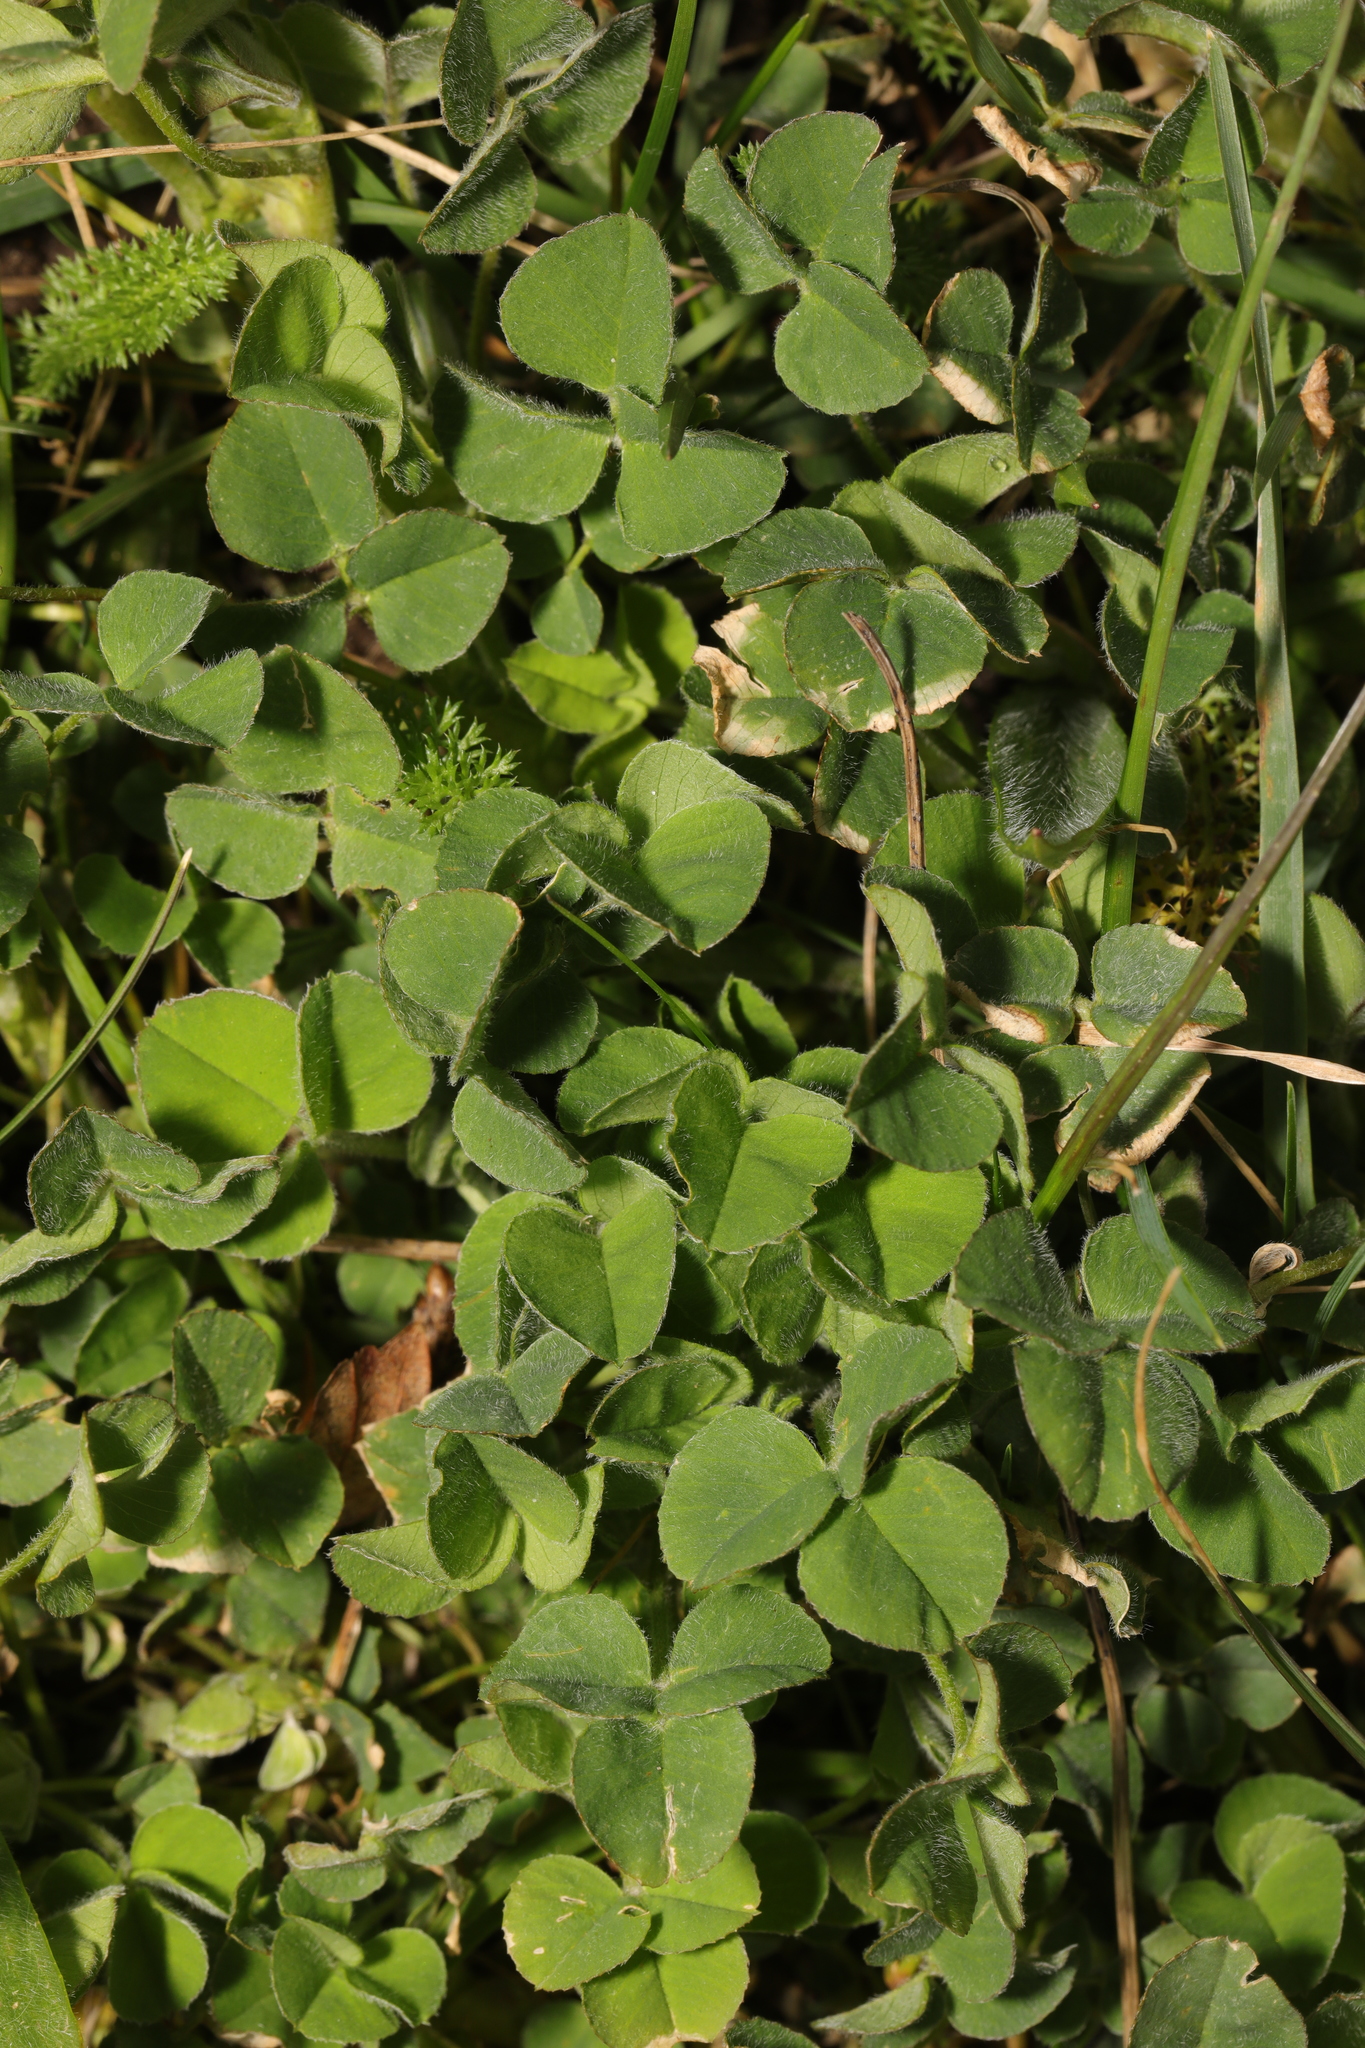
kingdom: Plantae
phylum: Tracheophyta
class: Magnoliopsida
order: Fabales
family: Fabaceae
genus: Medicago
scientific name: Medicago lupulina
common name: Black medick
